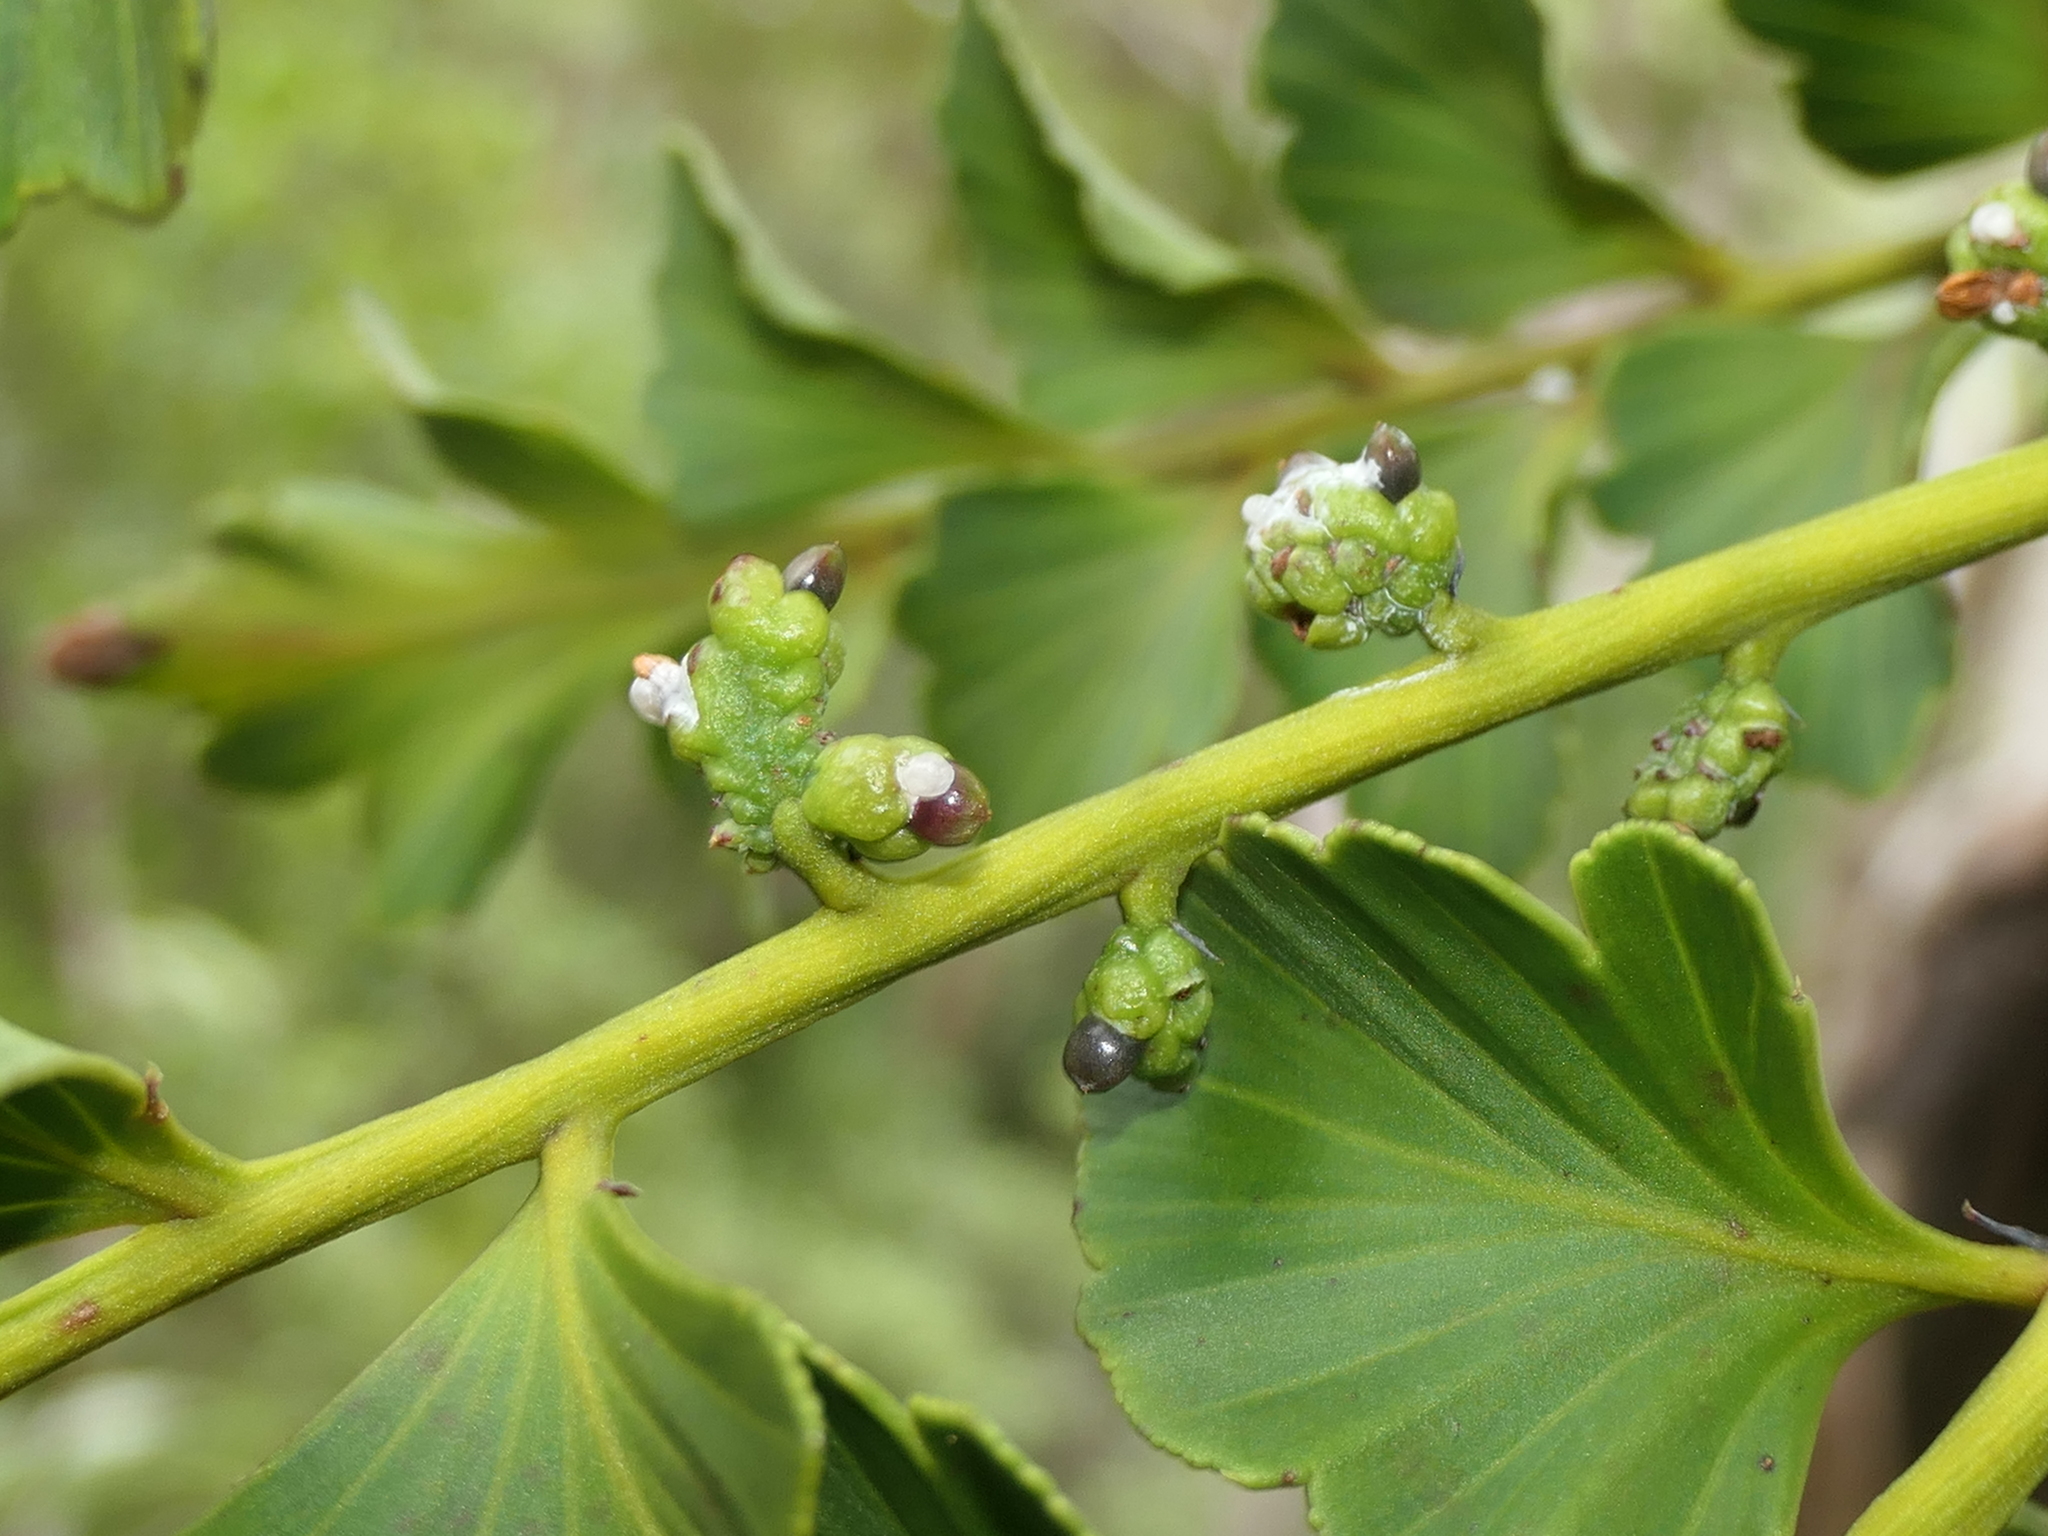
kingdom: Plantae
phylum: Tracheophyta
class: Pinopsida
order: Pinales
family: Phyllocladaceae
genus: Phyllocladus
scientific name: Phyllocladus toatoa
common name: Celery-top pine
